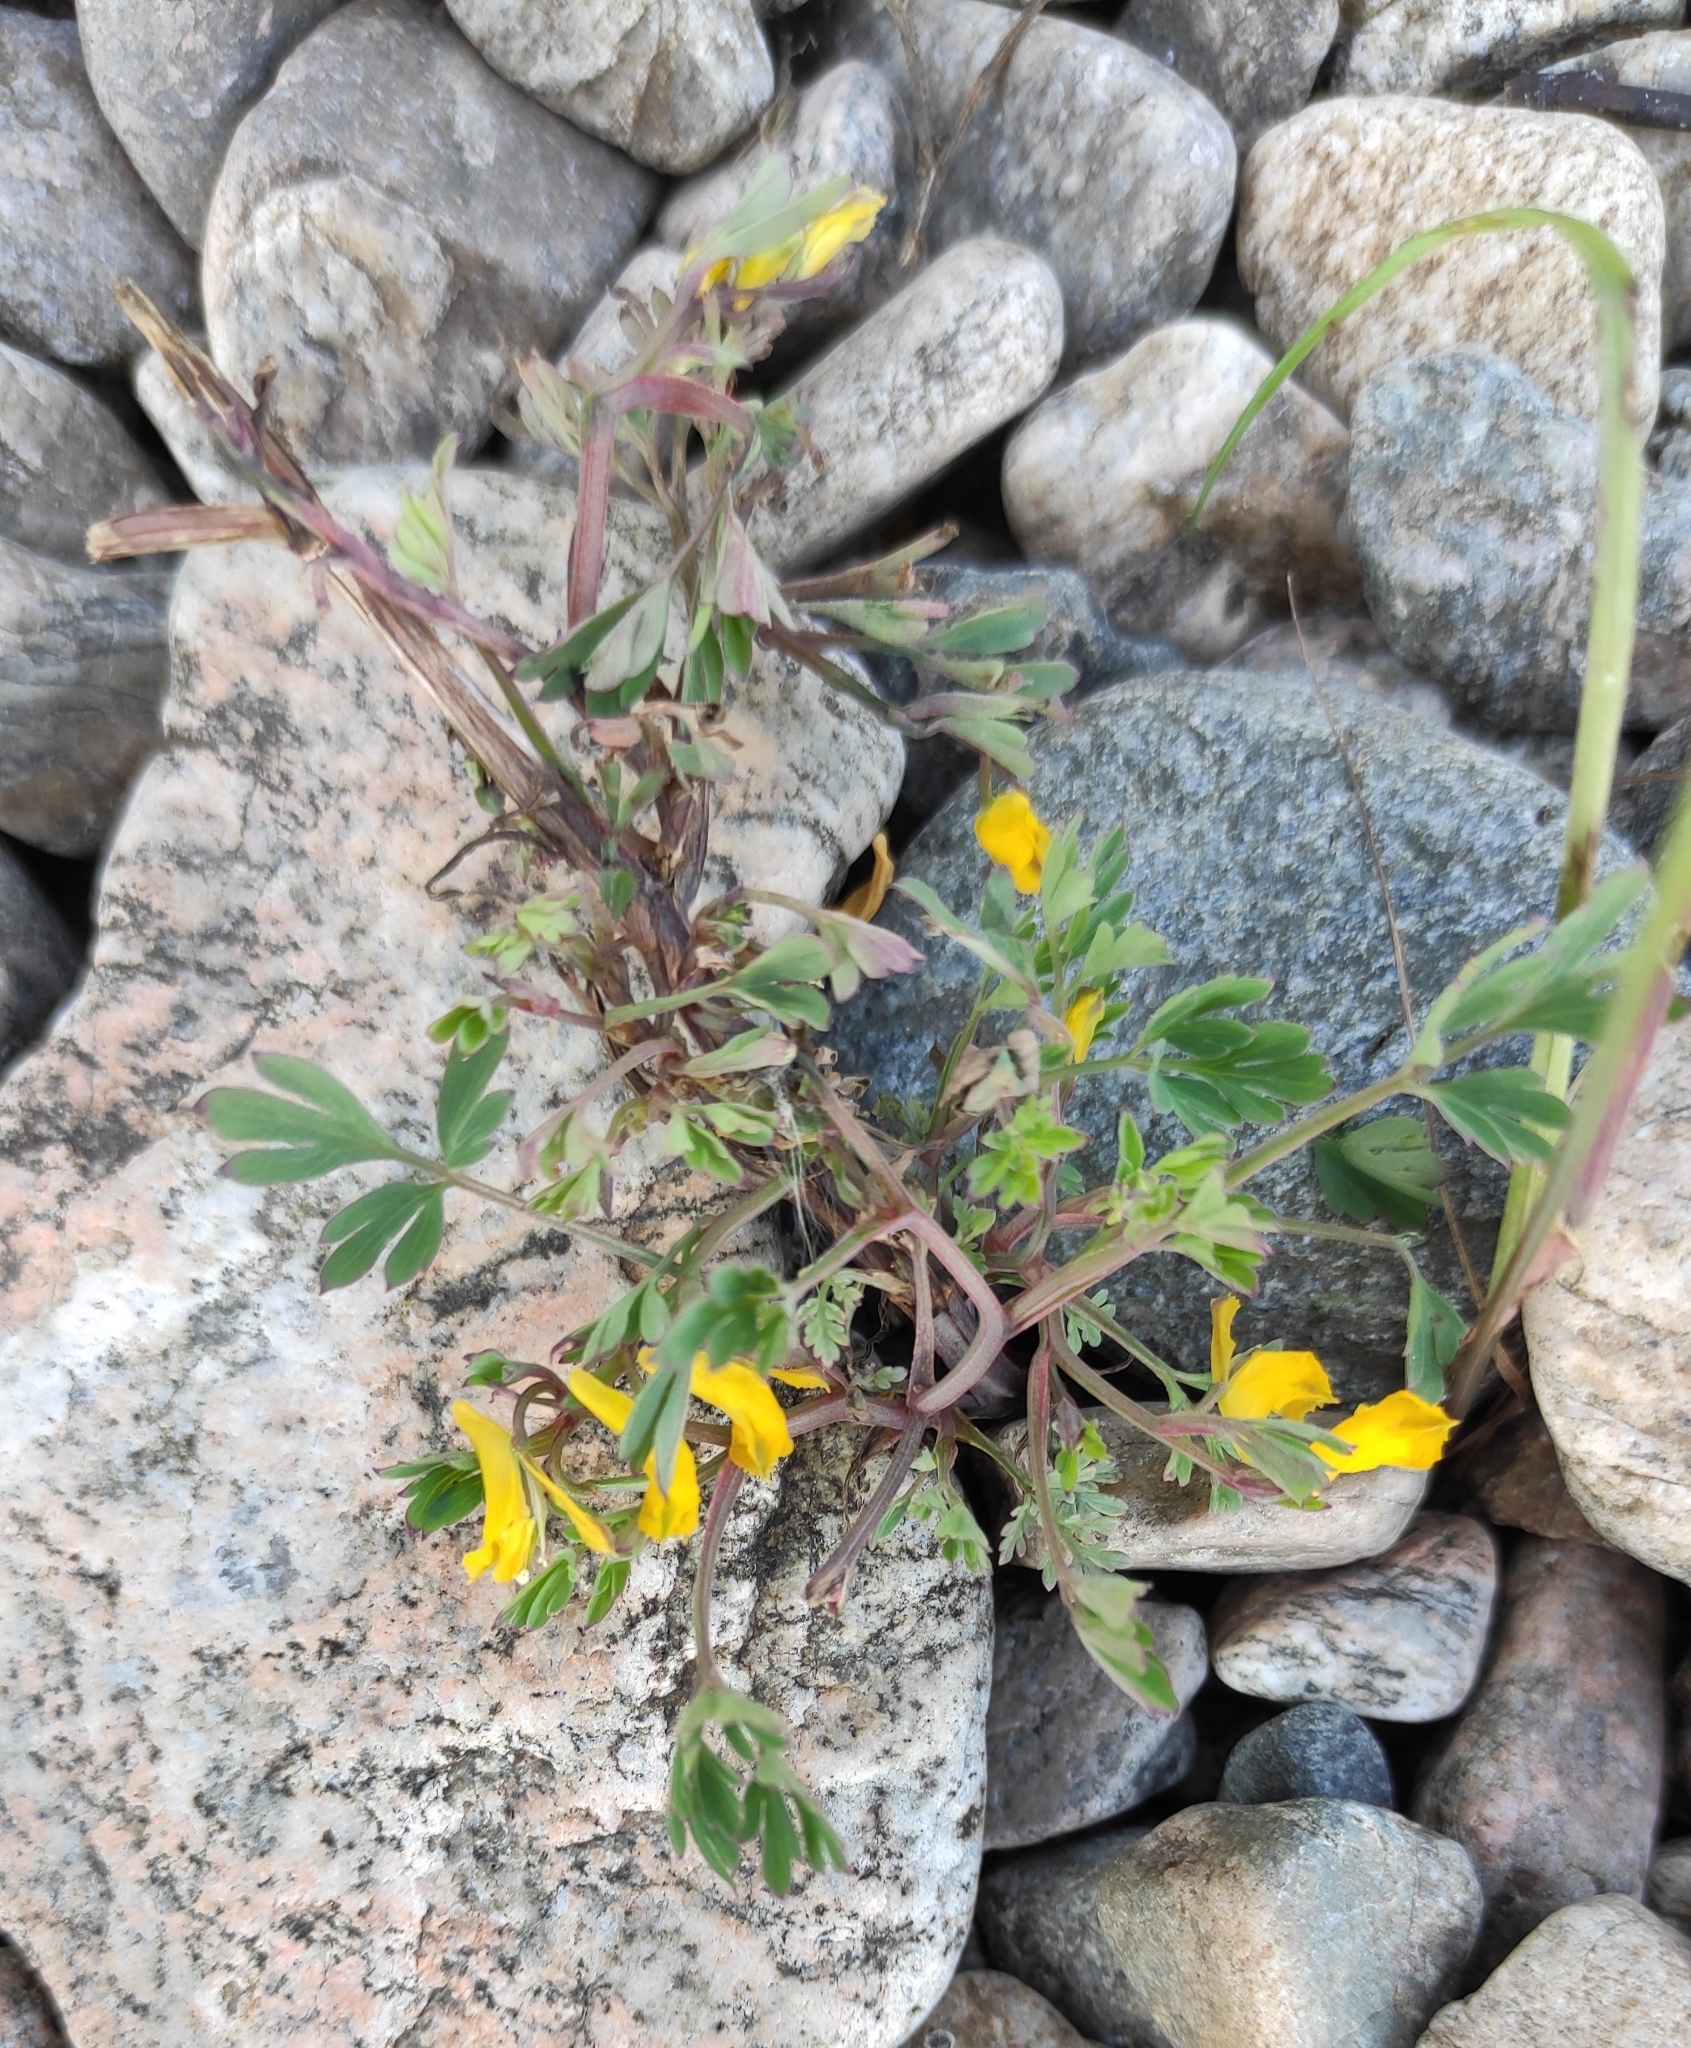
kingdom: Plantae
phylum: Tracheophyta
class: Magnoliopsida
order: Ranunculales
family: Papaveraceae
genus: Corydalis
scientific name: Corydalis impatiens
